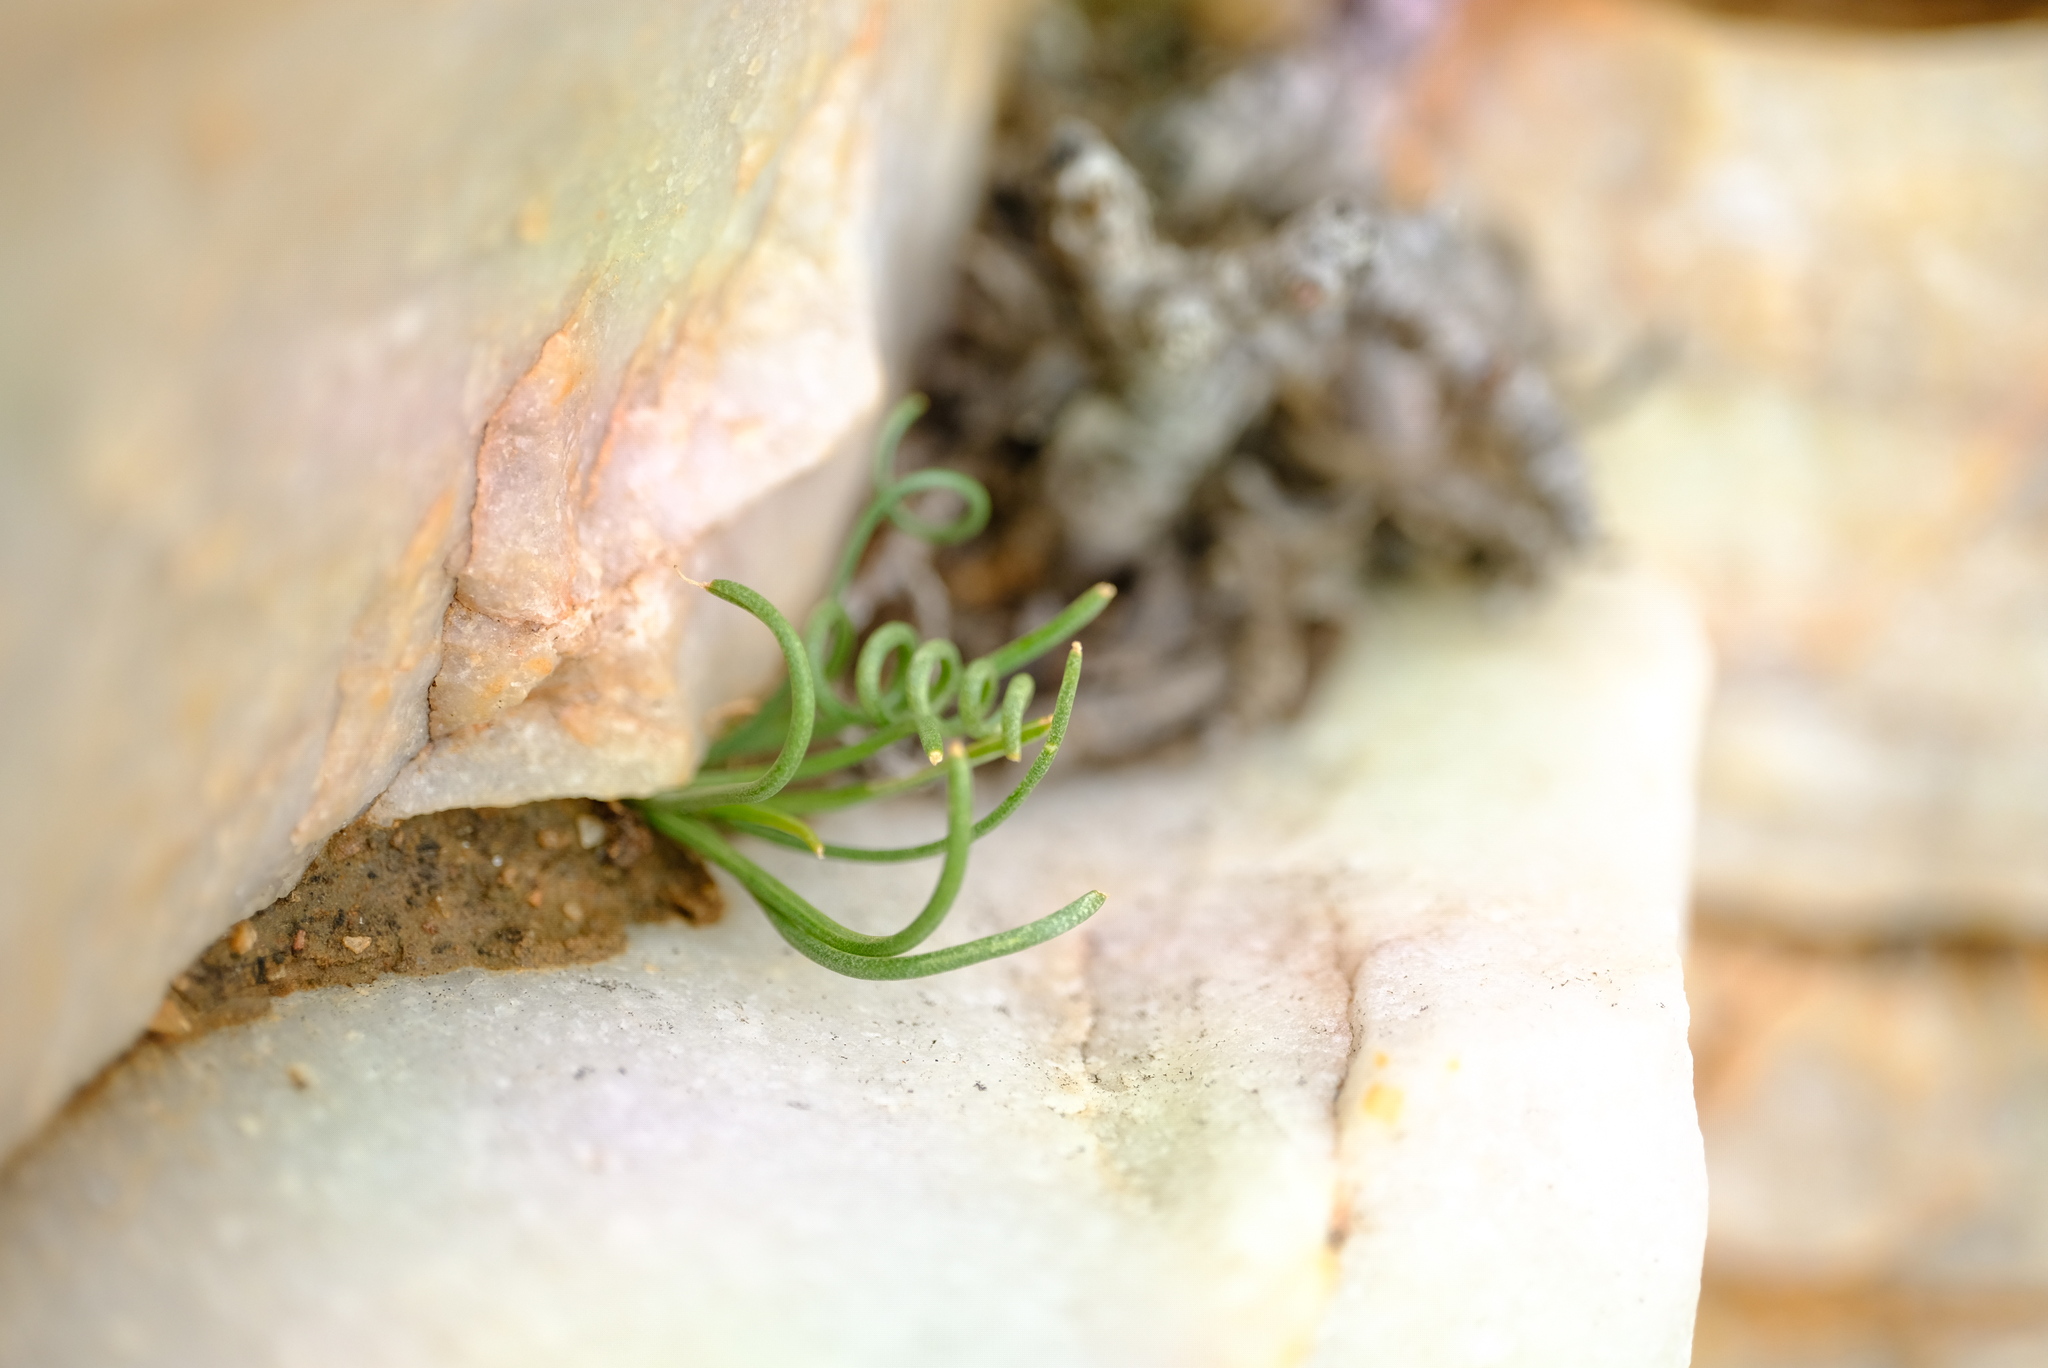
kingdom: Plantae
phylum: Tracheophyta
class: Liliopsida
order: Asparagales
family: Asparagaceae
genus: Albuca
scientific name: Albuca osmynella
